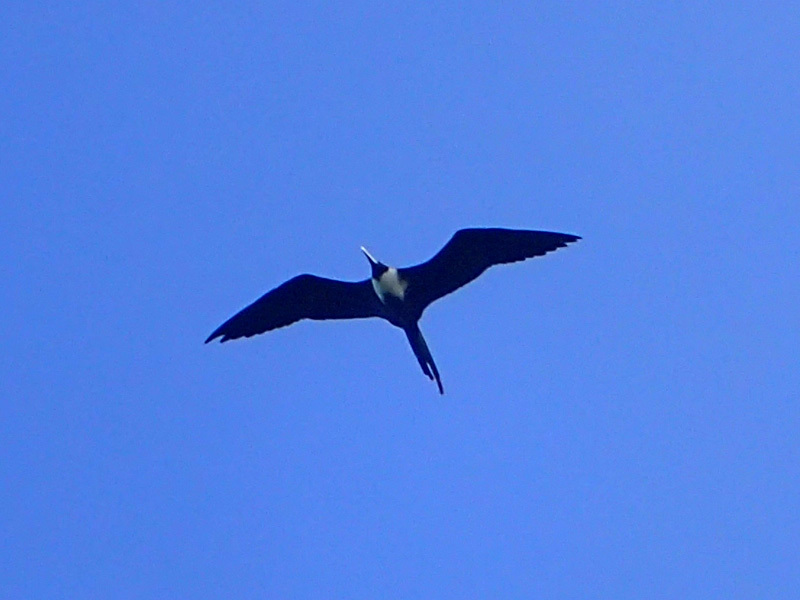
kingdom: Animalia
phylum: Chordata
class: Aves
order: Suliformes
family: Fregatidae
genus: Fregata
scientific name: Fregata magnificens
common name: Magnificent frigatebird
